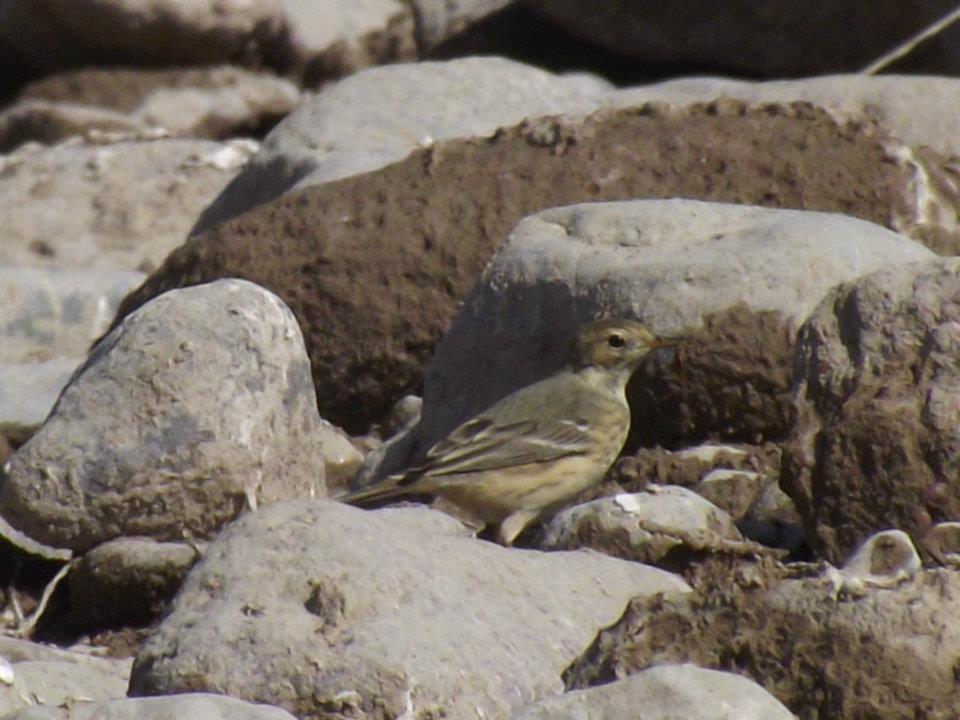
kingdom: Animalia
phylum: Chordata
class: Aves
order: Passeriformes
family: Motacillidae
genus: Anthus
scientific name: Anthus rubescens
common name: Buff-bellied pipit
